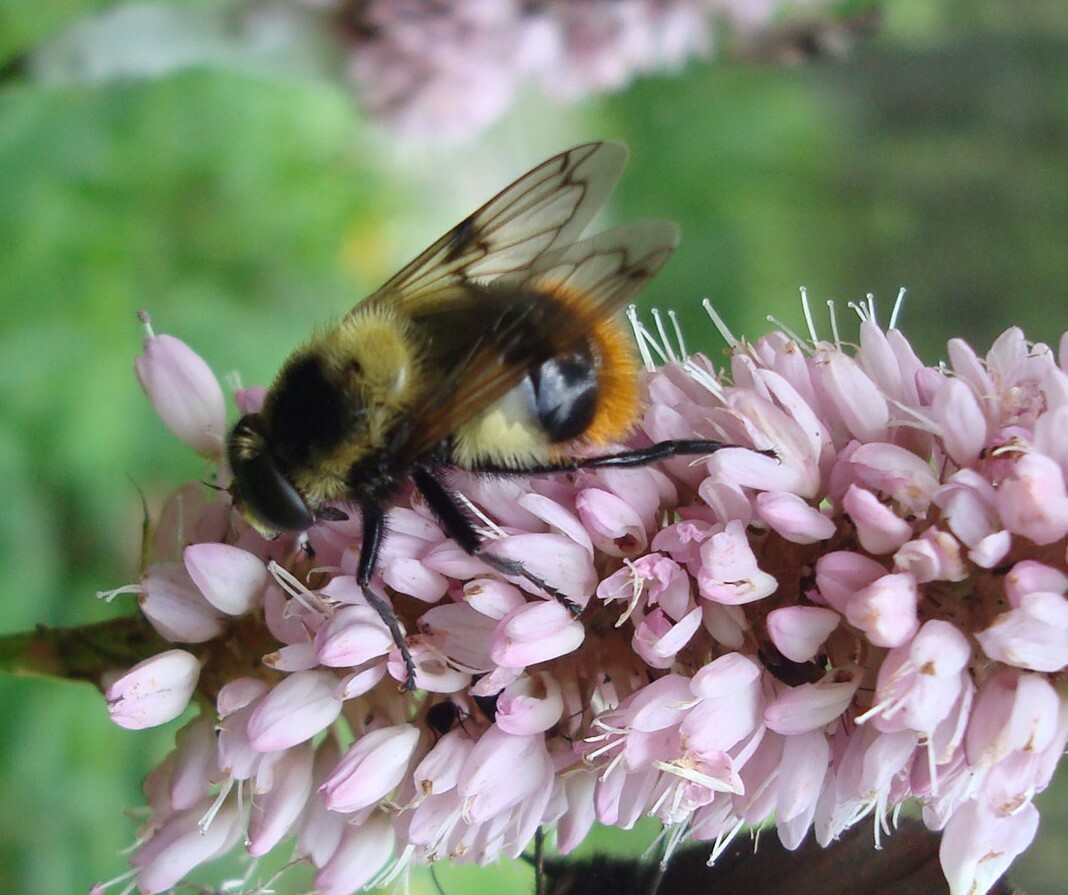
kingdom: Animalia
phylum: Arthropoda
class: Insecta
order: Diptera
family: Syrphidae
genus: Volucella
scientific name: Volucella bombylans
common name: Bumble bee hover fly
